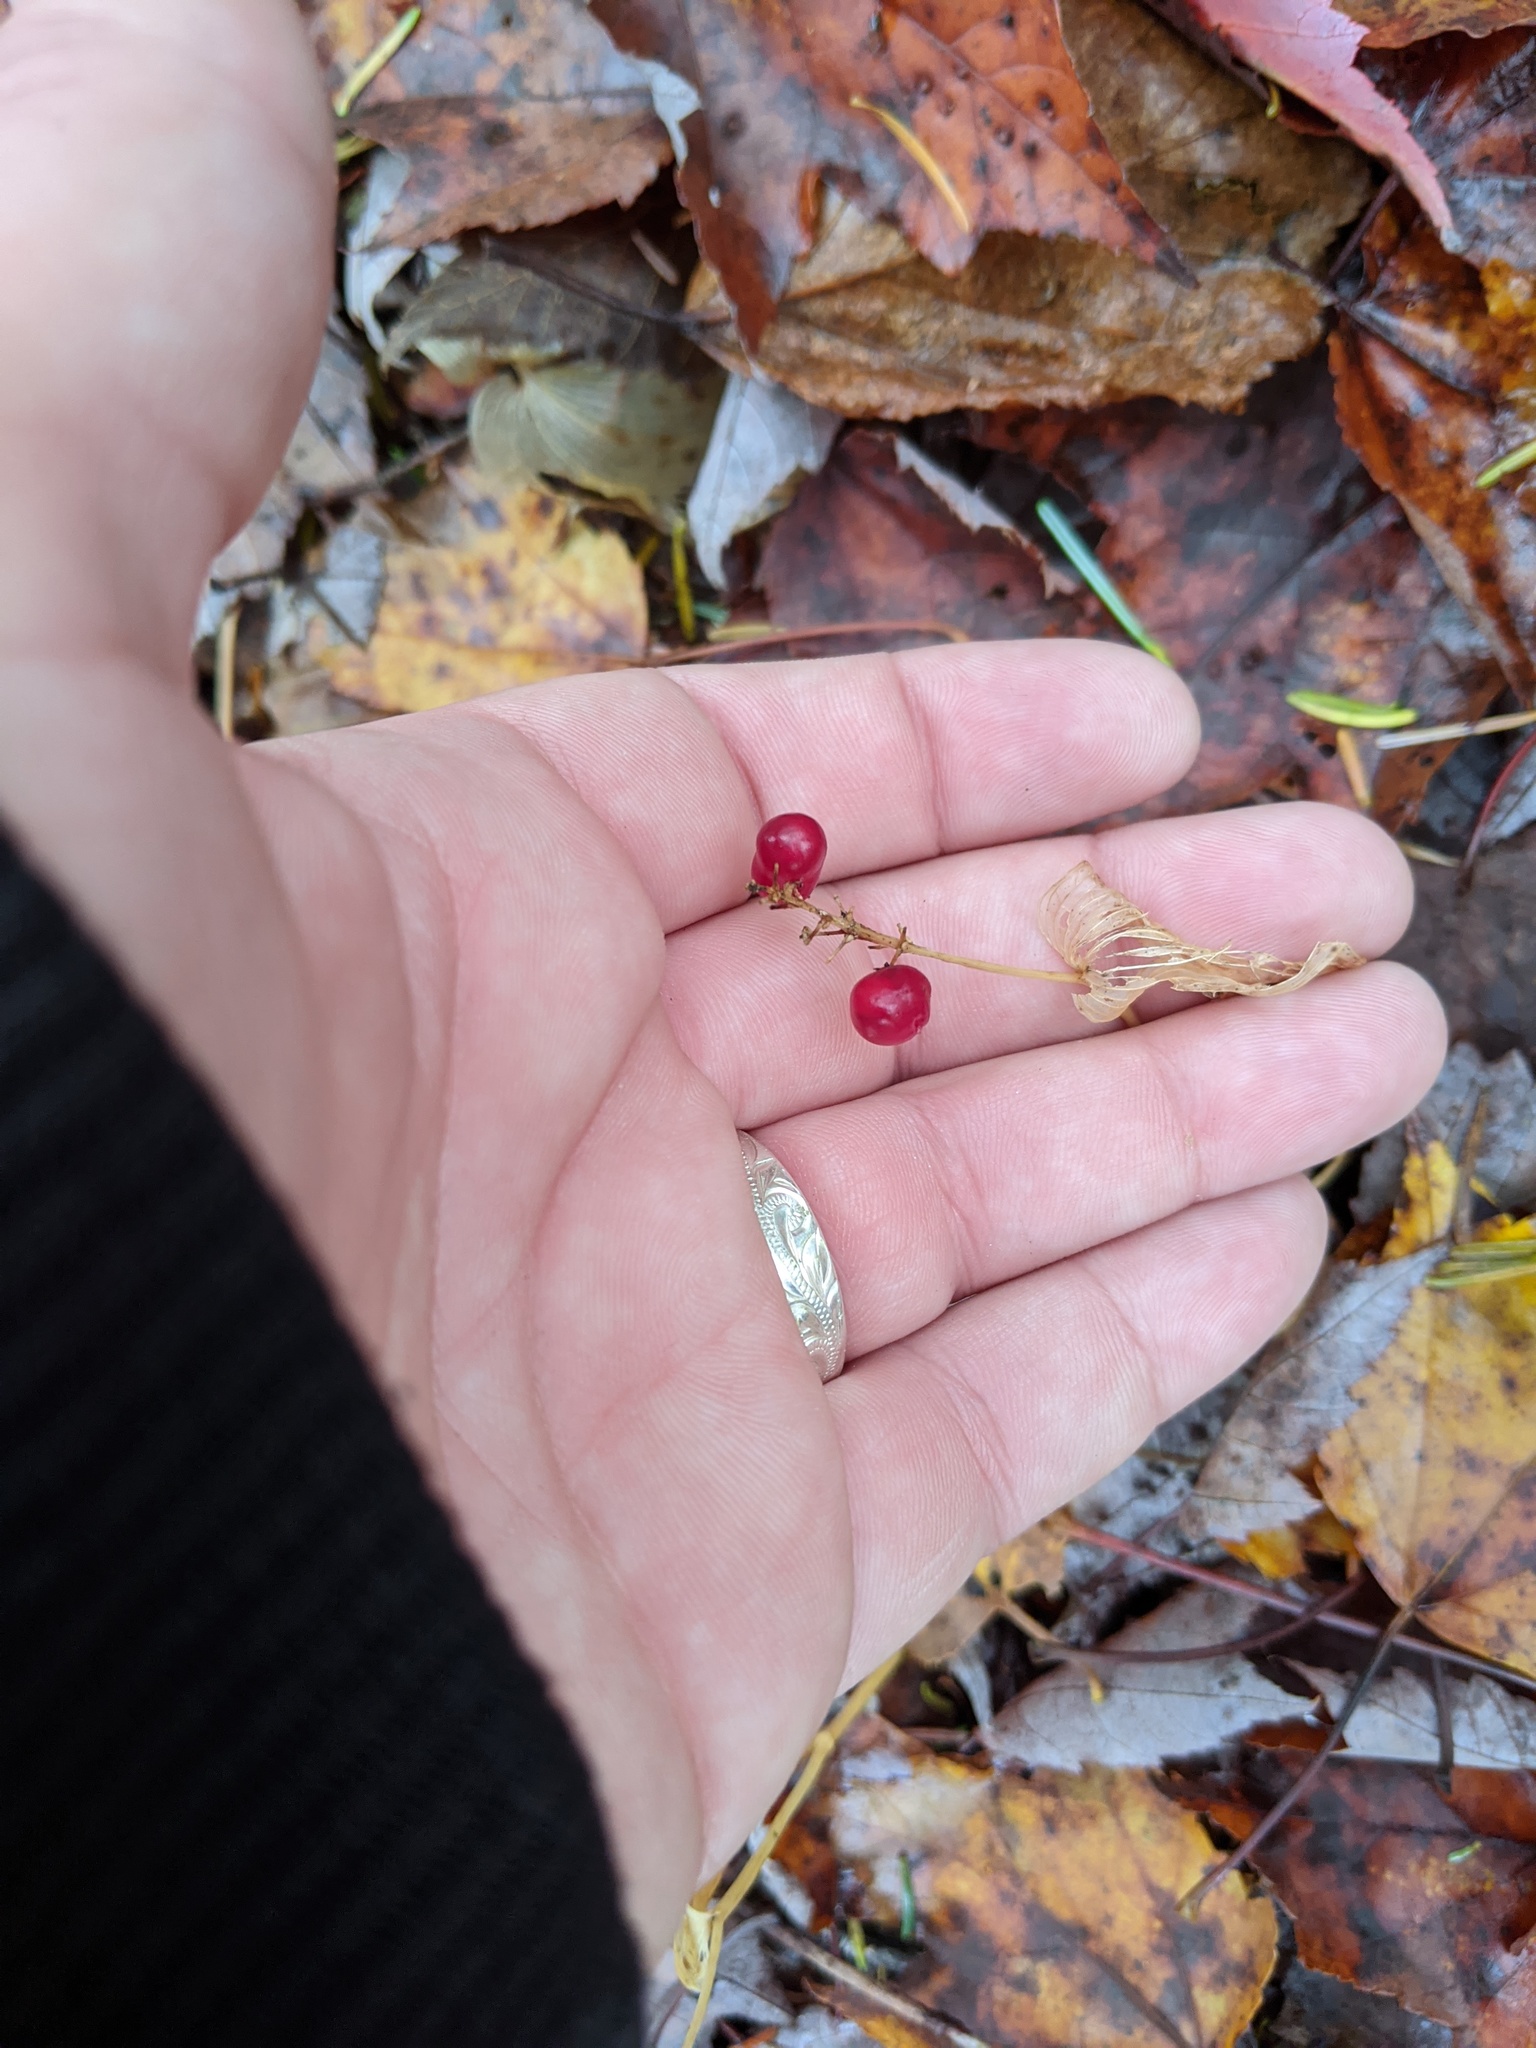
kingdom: Plantae
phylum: Tracheophyta
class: Liliopsida
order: Asparagales
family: Asparagaceae
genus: Maianthemum
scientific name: Maianthemum canadense
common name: False lily-of-the-valley
